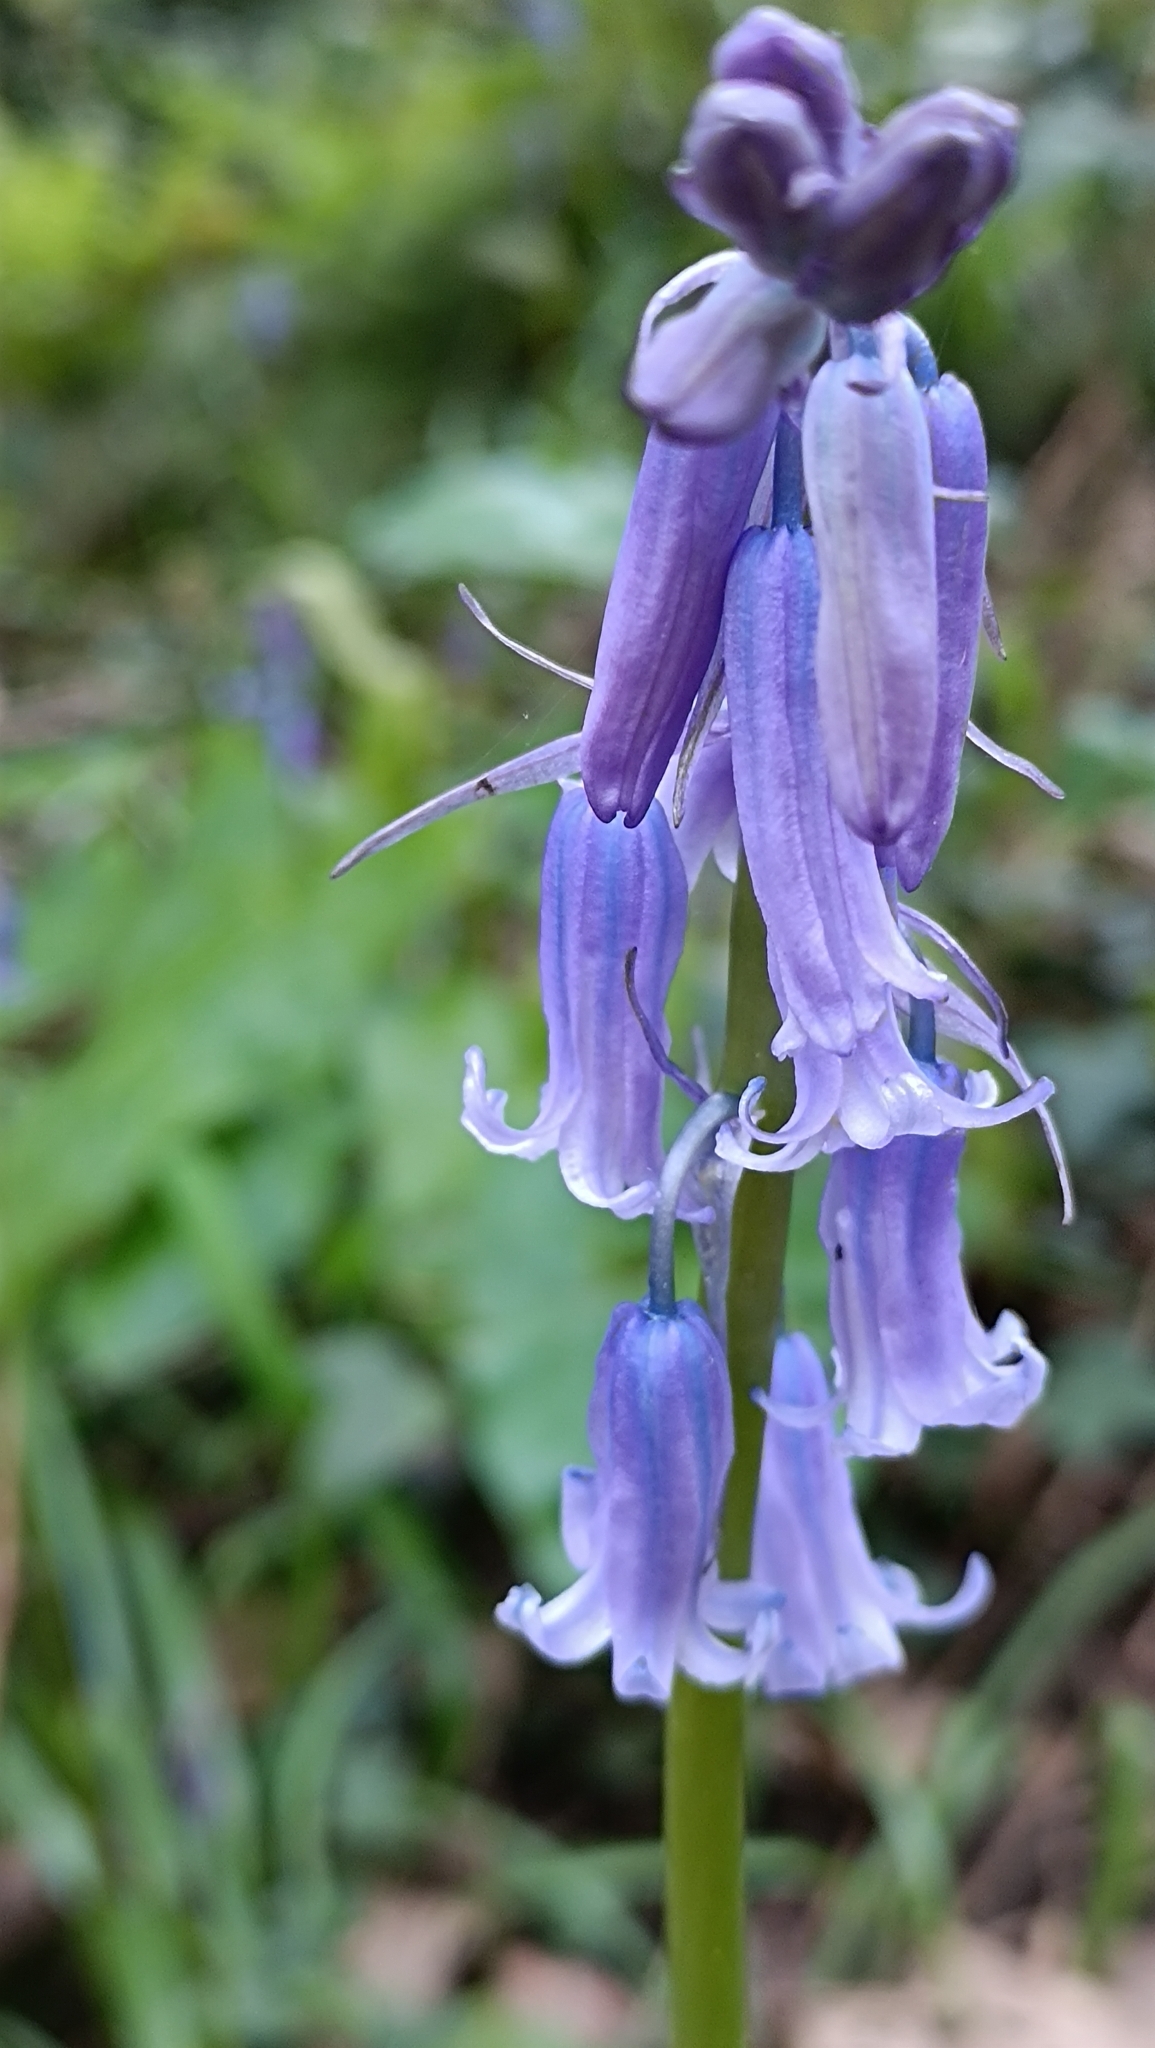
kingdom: Plantae
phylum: Tracheophyta
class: Liliopsida
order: Asparagales
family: Asparagaceae
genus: Hyacinthoides
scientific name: Hyacinthoides non-scripta
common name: Bluebell
